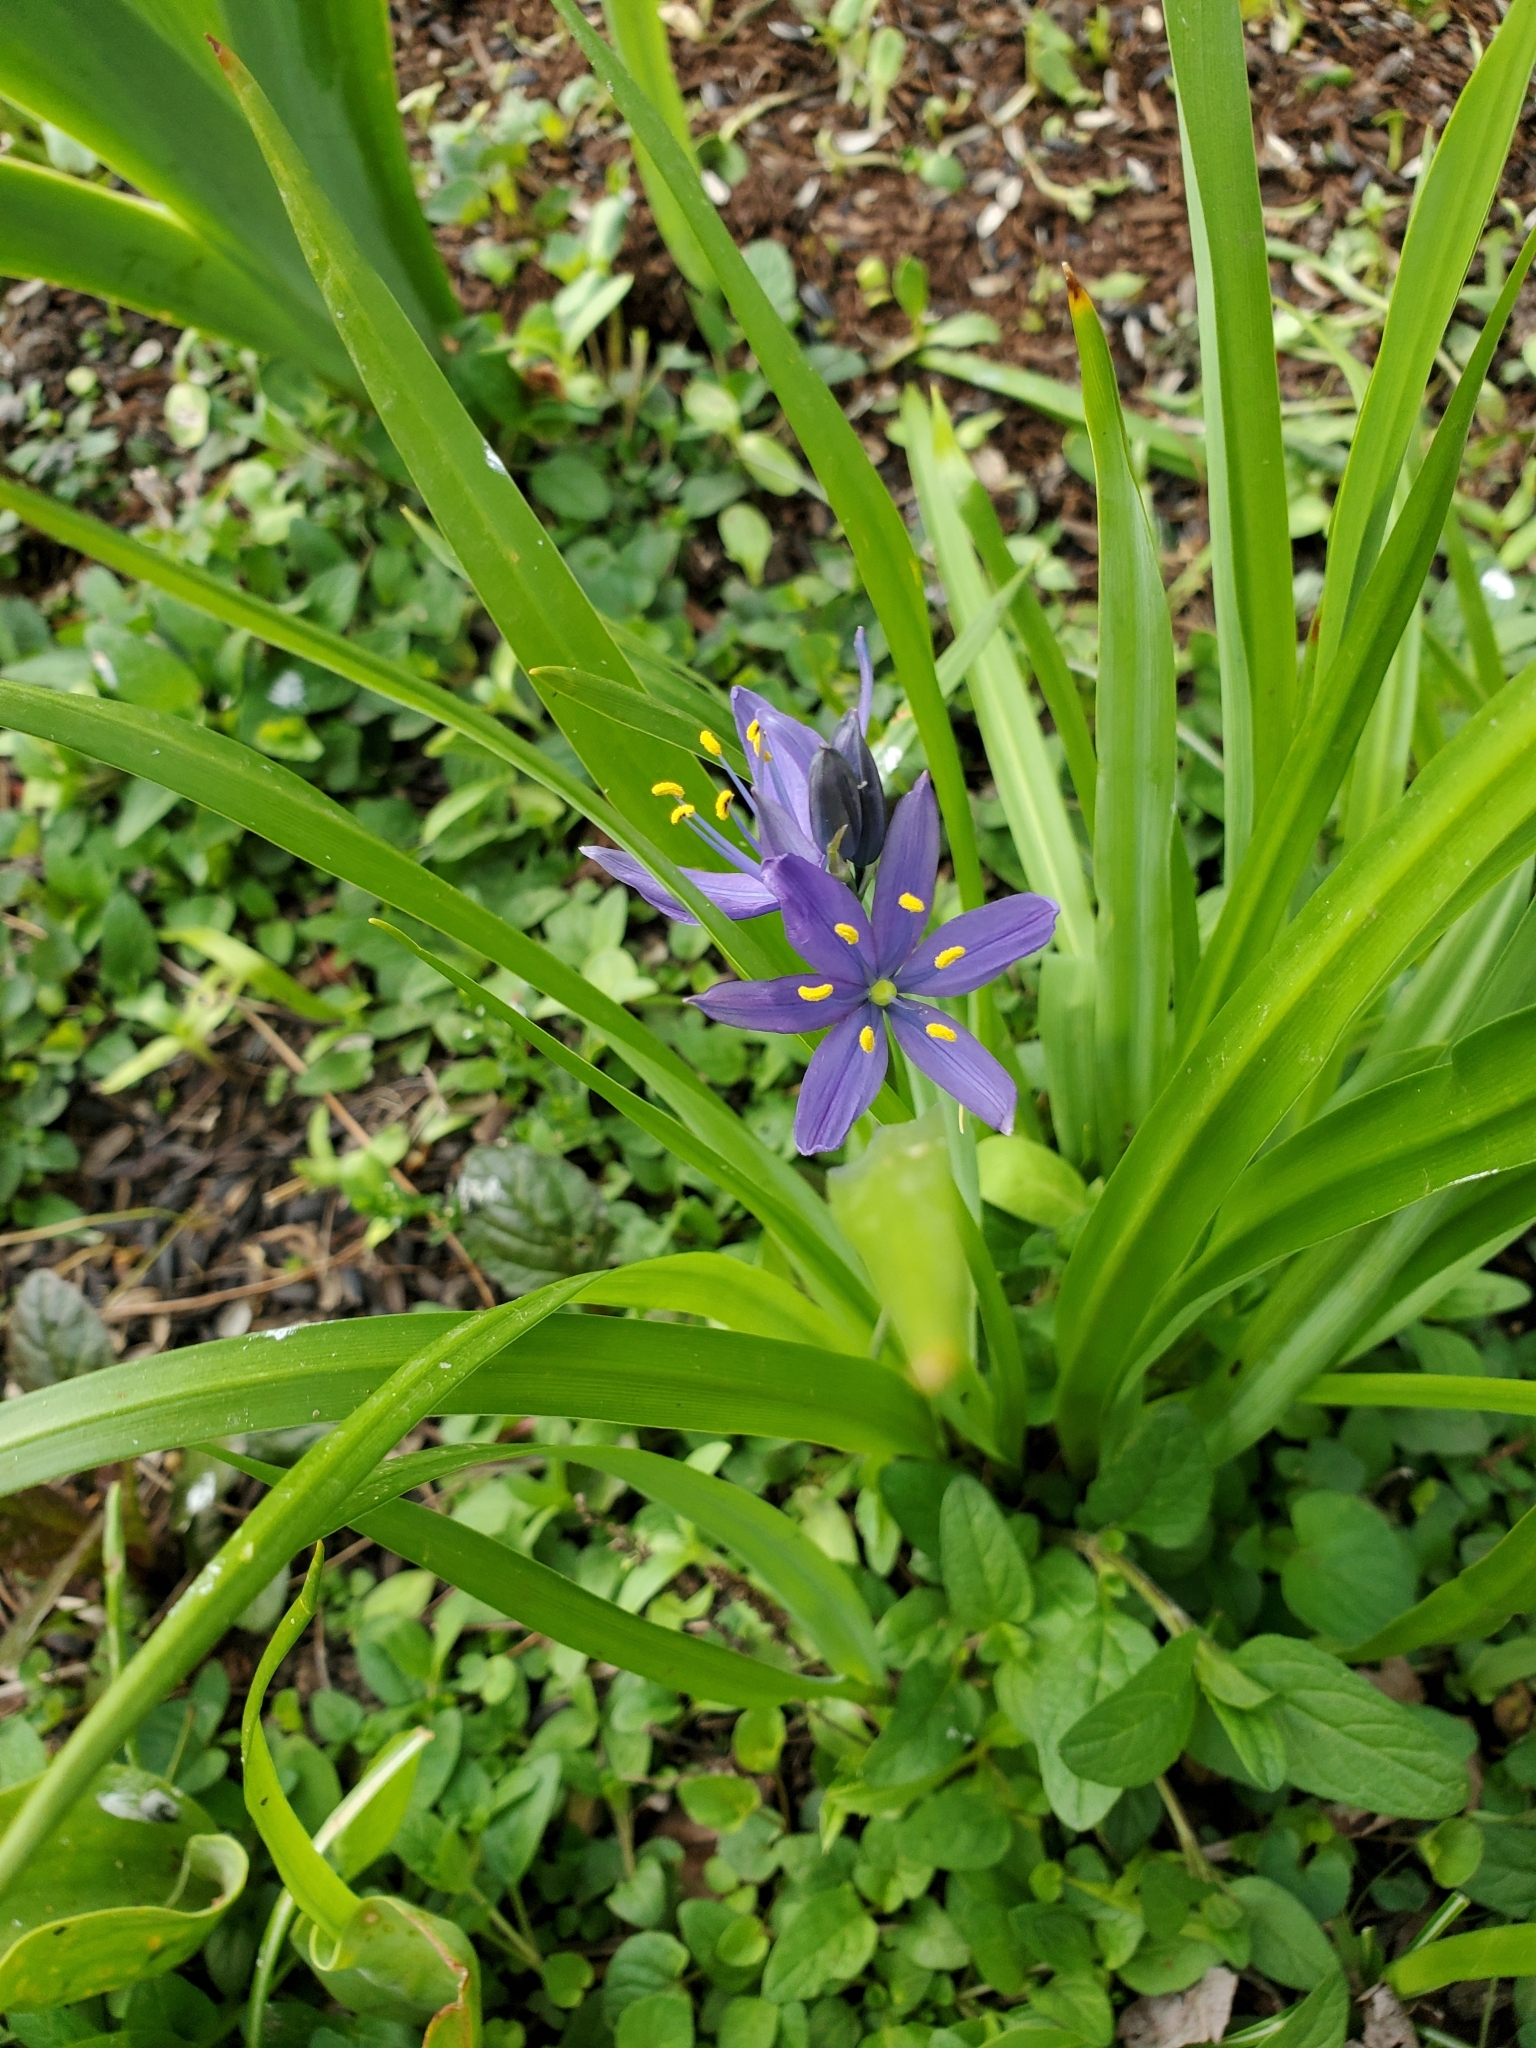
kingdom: Plantae
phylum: Tracheophyta
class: Liliopsida
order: Asparagales
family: Asparagaceae
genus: Camassia
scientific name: Camassia leichtlinii
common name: Leichtlin's camas
